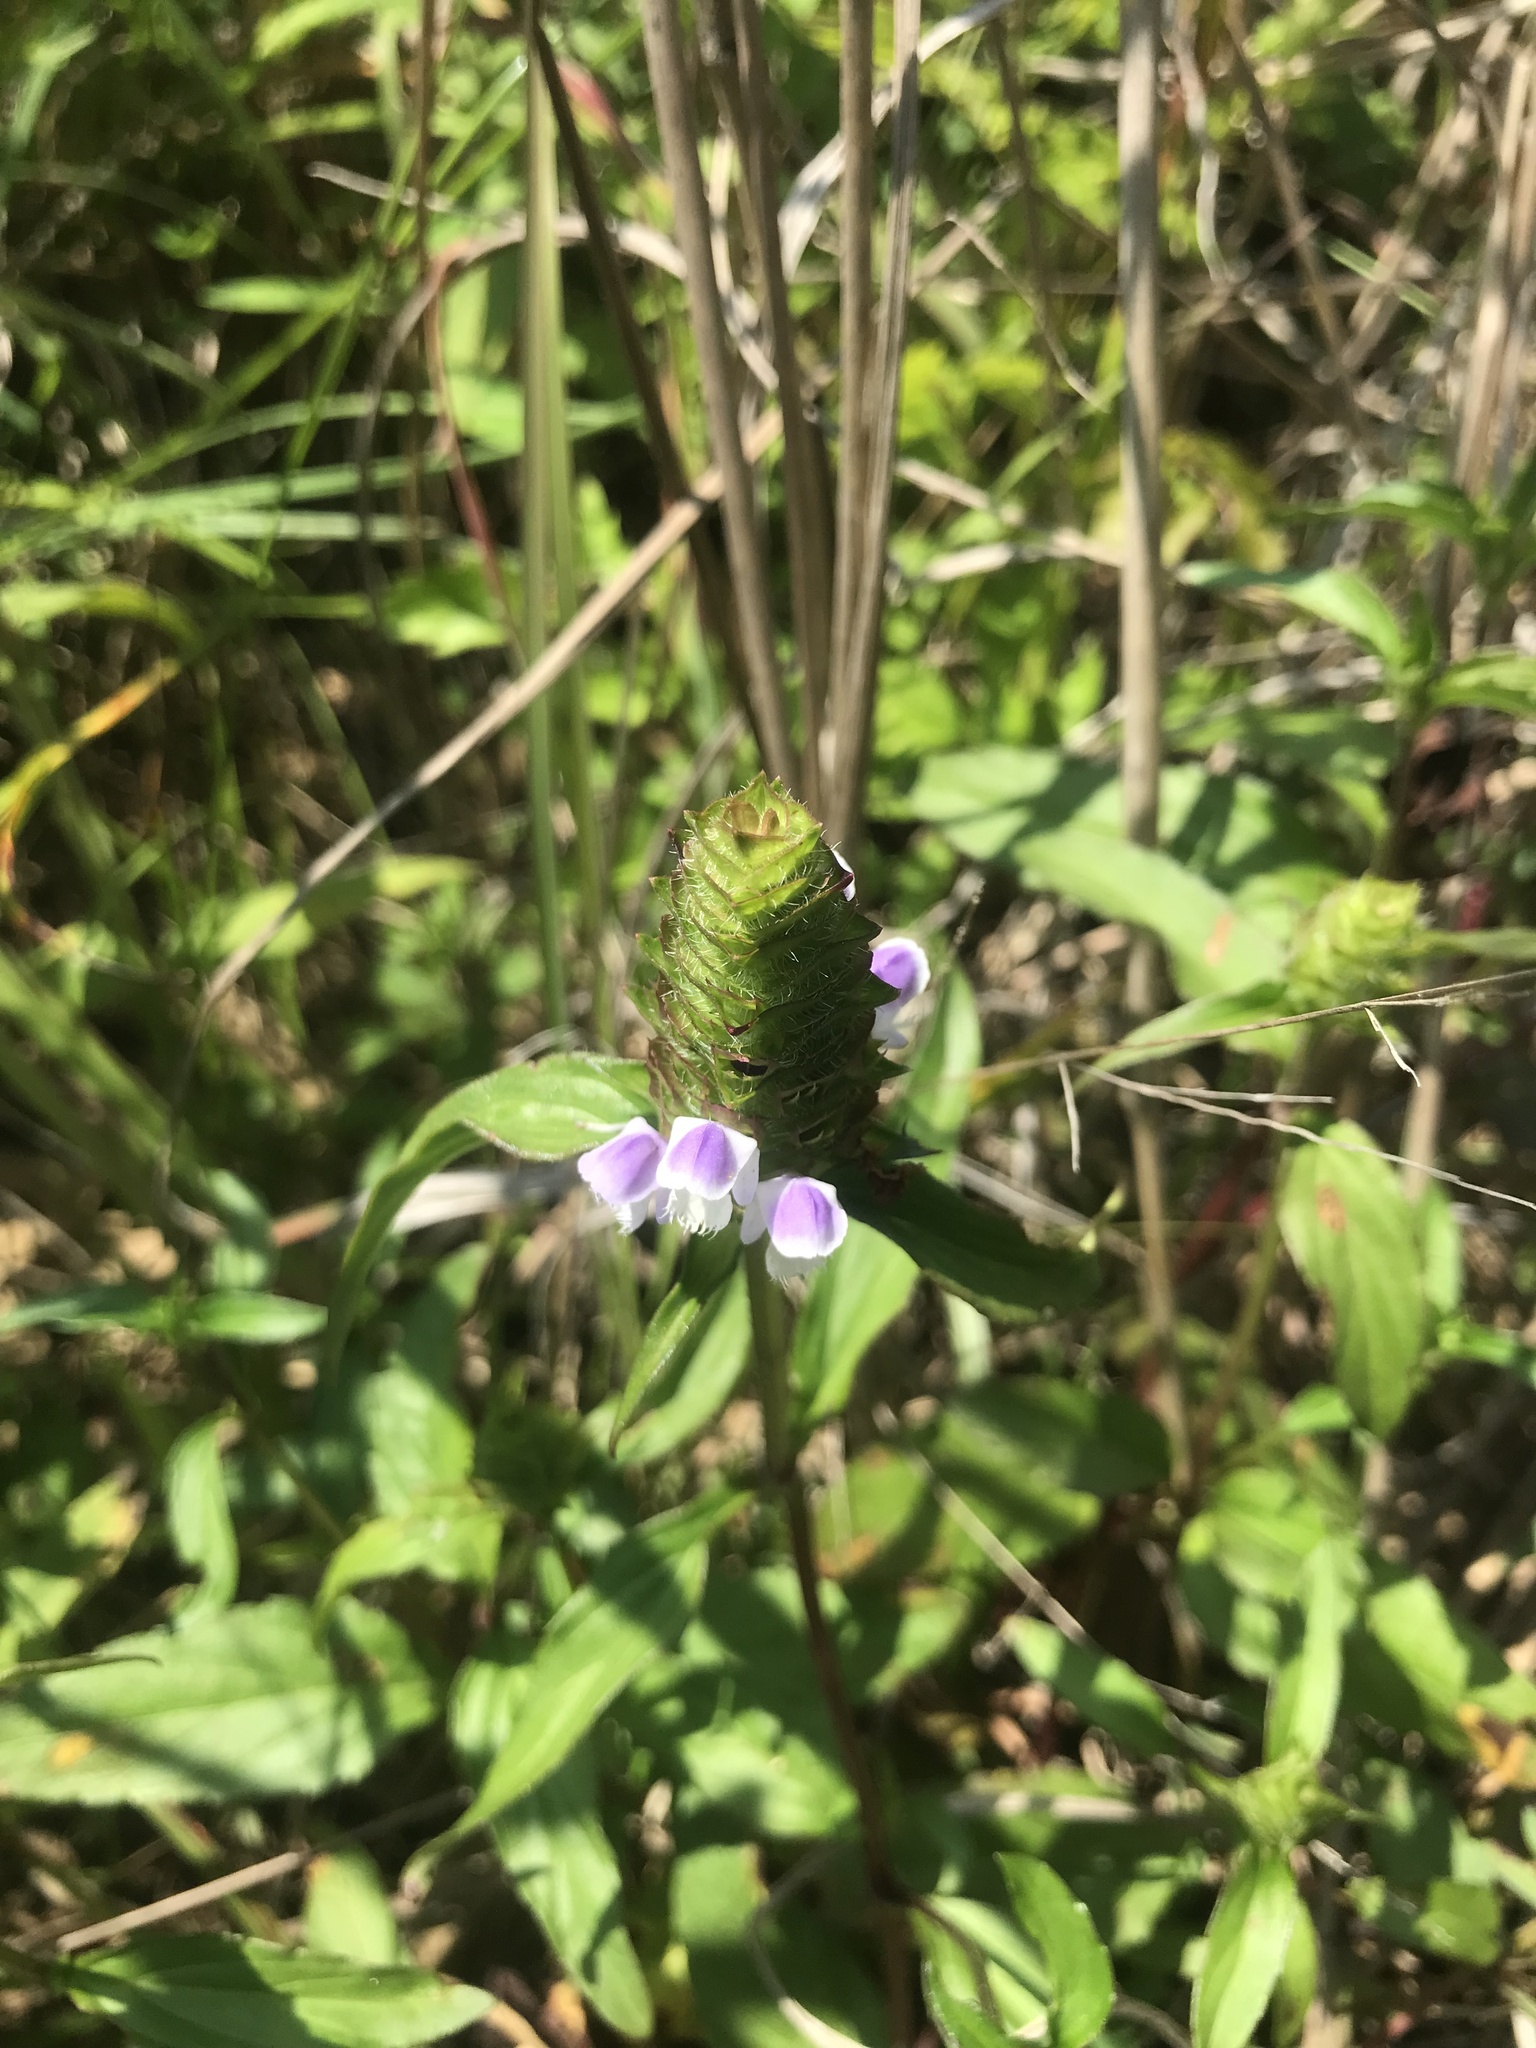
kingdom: Plantae
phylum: Tracheophyta
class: Magnoliopsida
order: Lamiales
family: Lamiaceae
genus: Prunella
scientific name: Prunella vulgaris
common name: Heal-all
